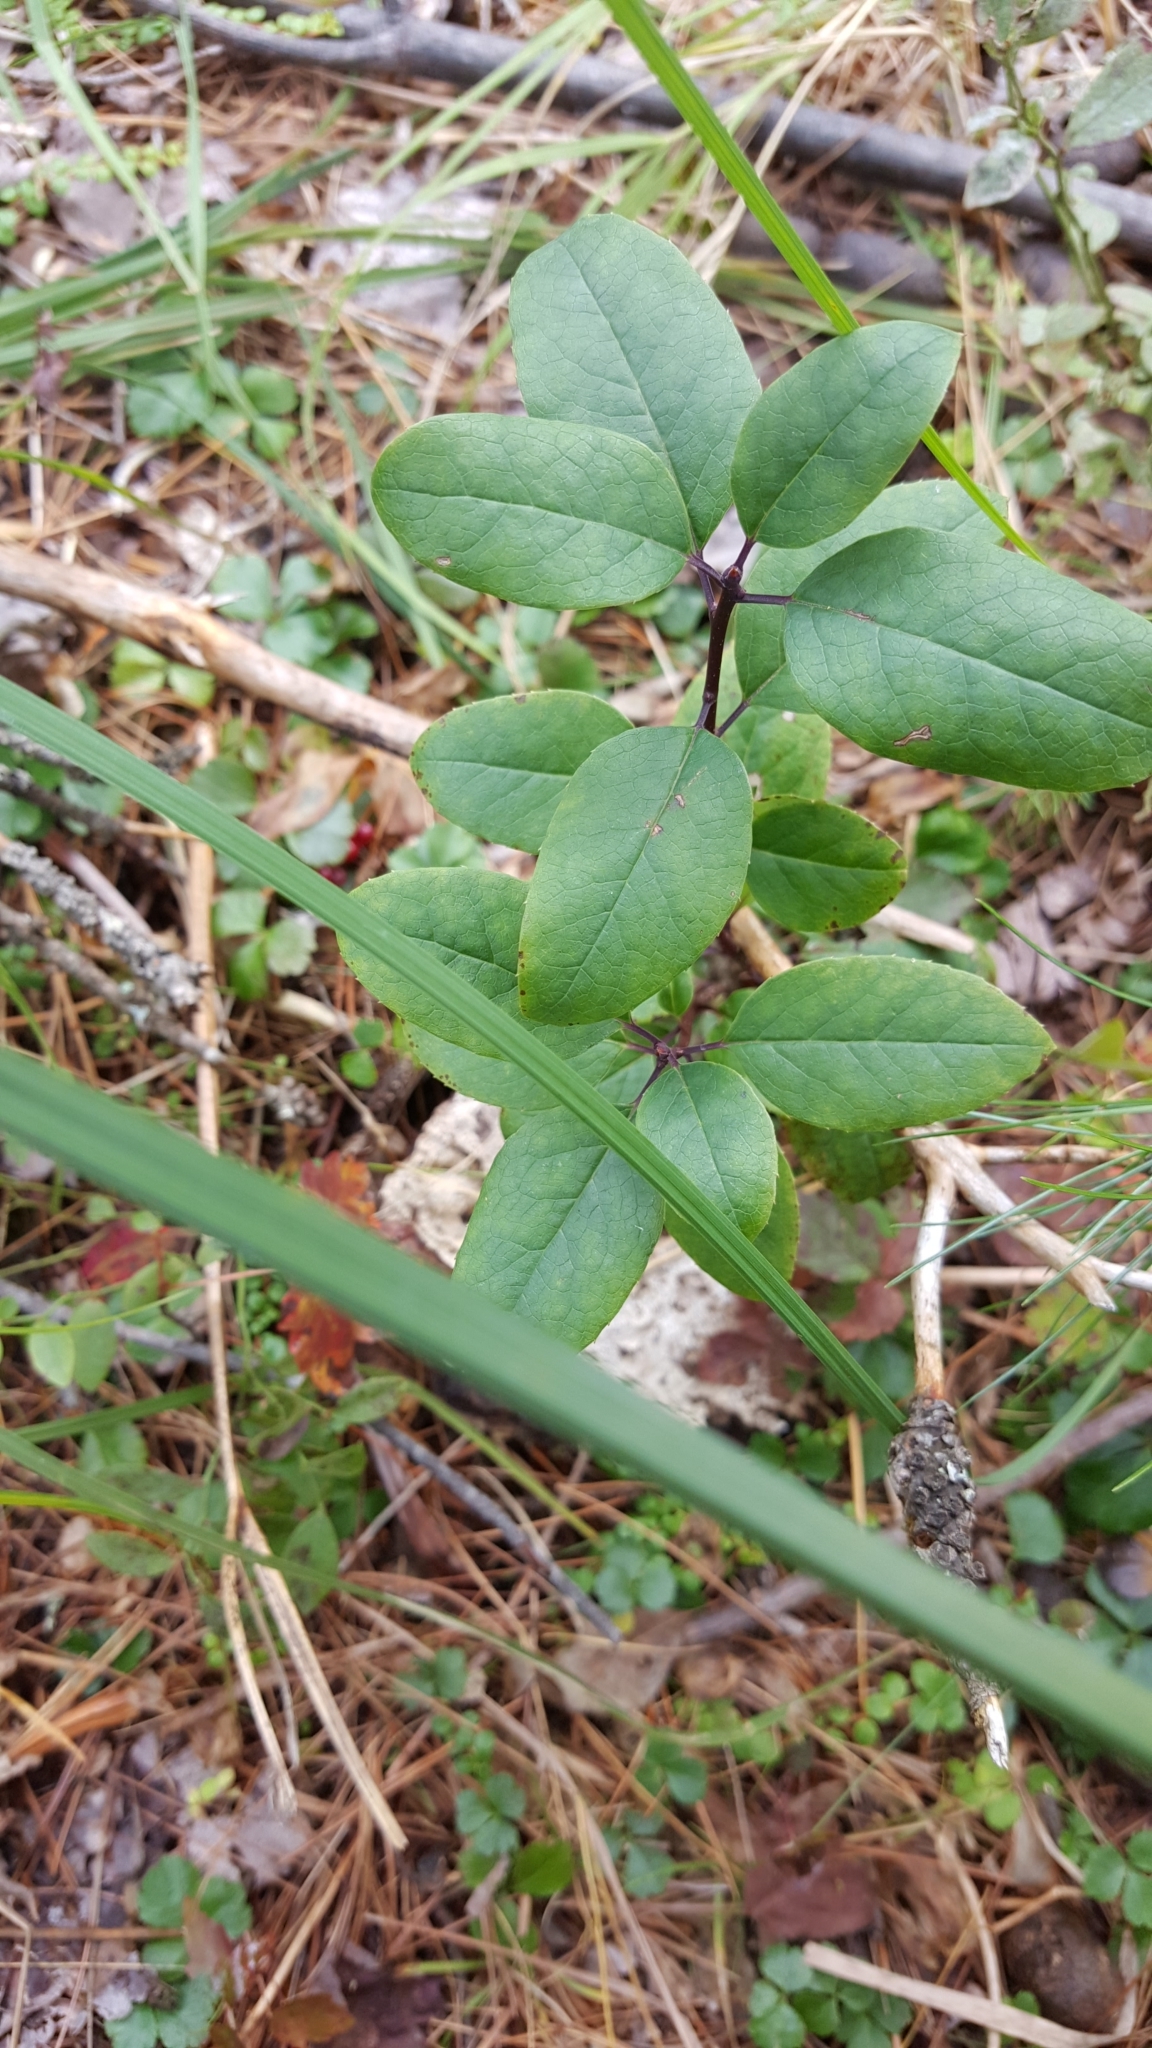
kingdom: Plantae
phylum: Tracheophyta
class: Magnoliopsida
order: Aquifoliales
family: Aquifoliaceae
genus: Ilex
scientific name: Ilex mucronata
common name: Catberry
